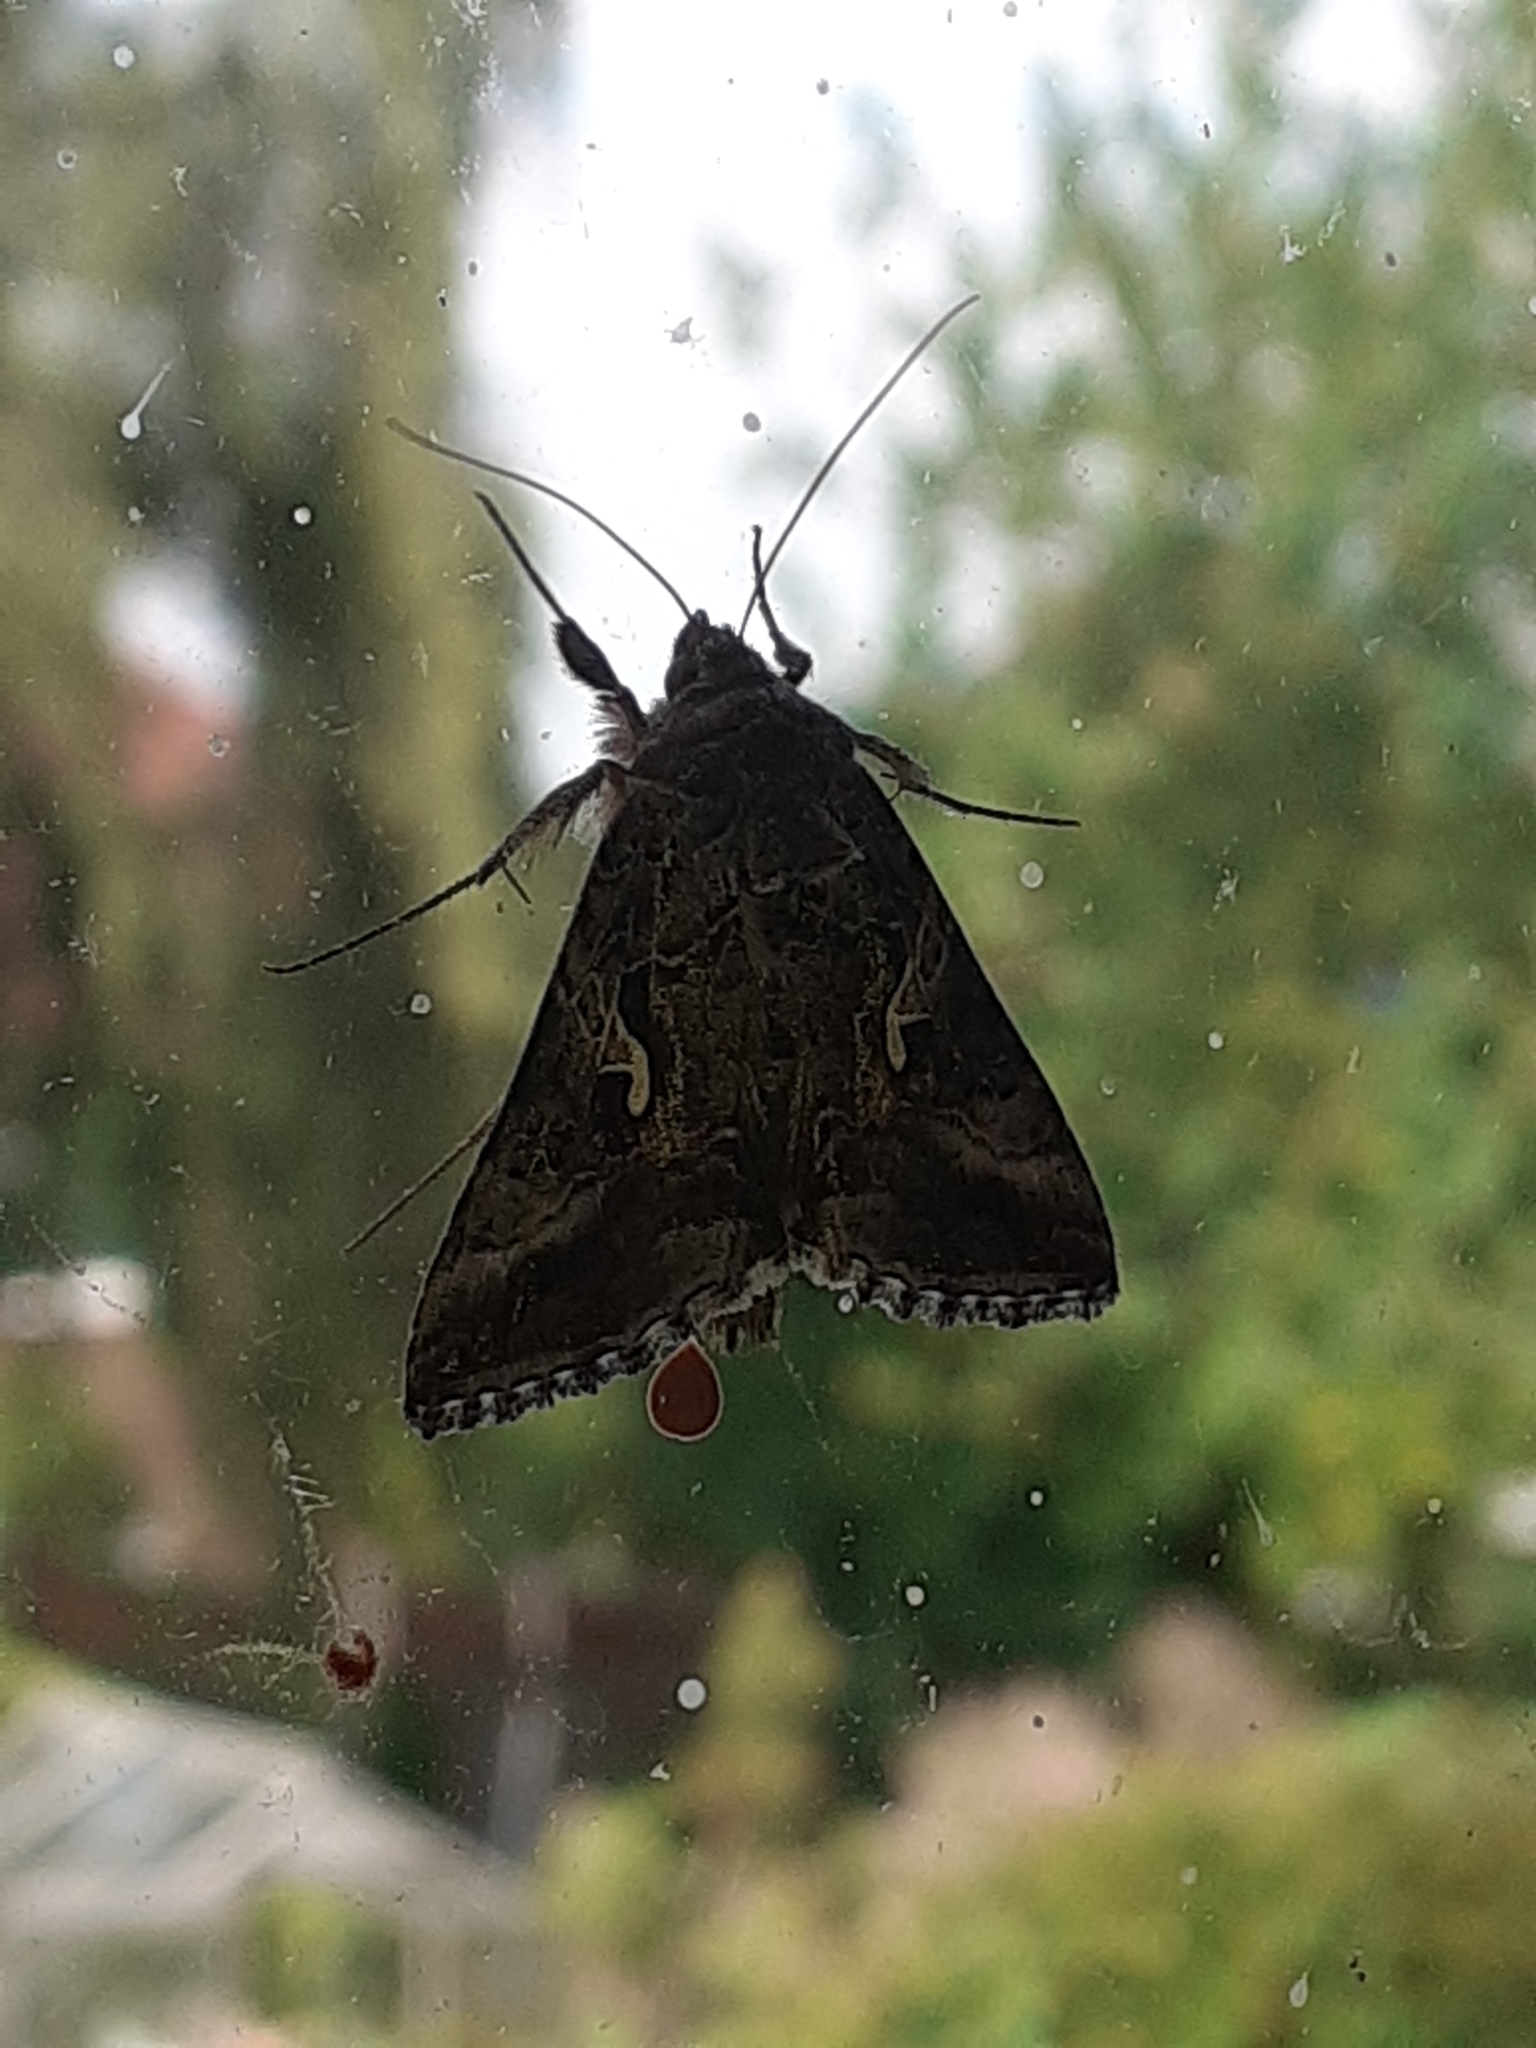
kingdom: Animalia
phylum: Arthropoda
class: Insecta
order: Lepidoptera
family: Noctuidae
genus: Autographa
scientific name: Autographa gamma
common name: Silver y
